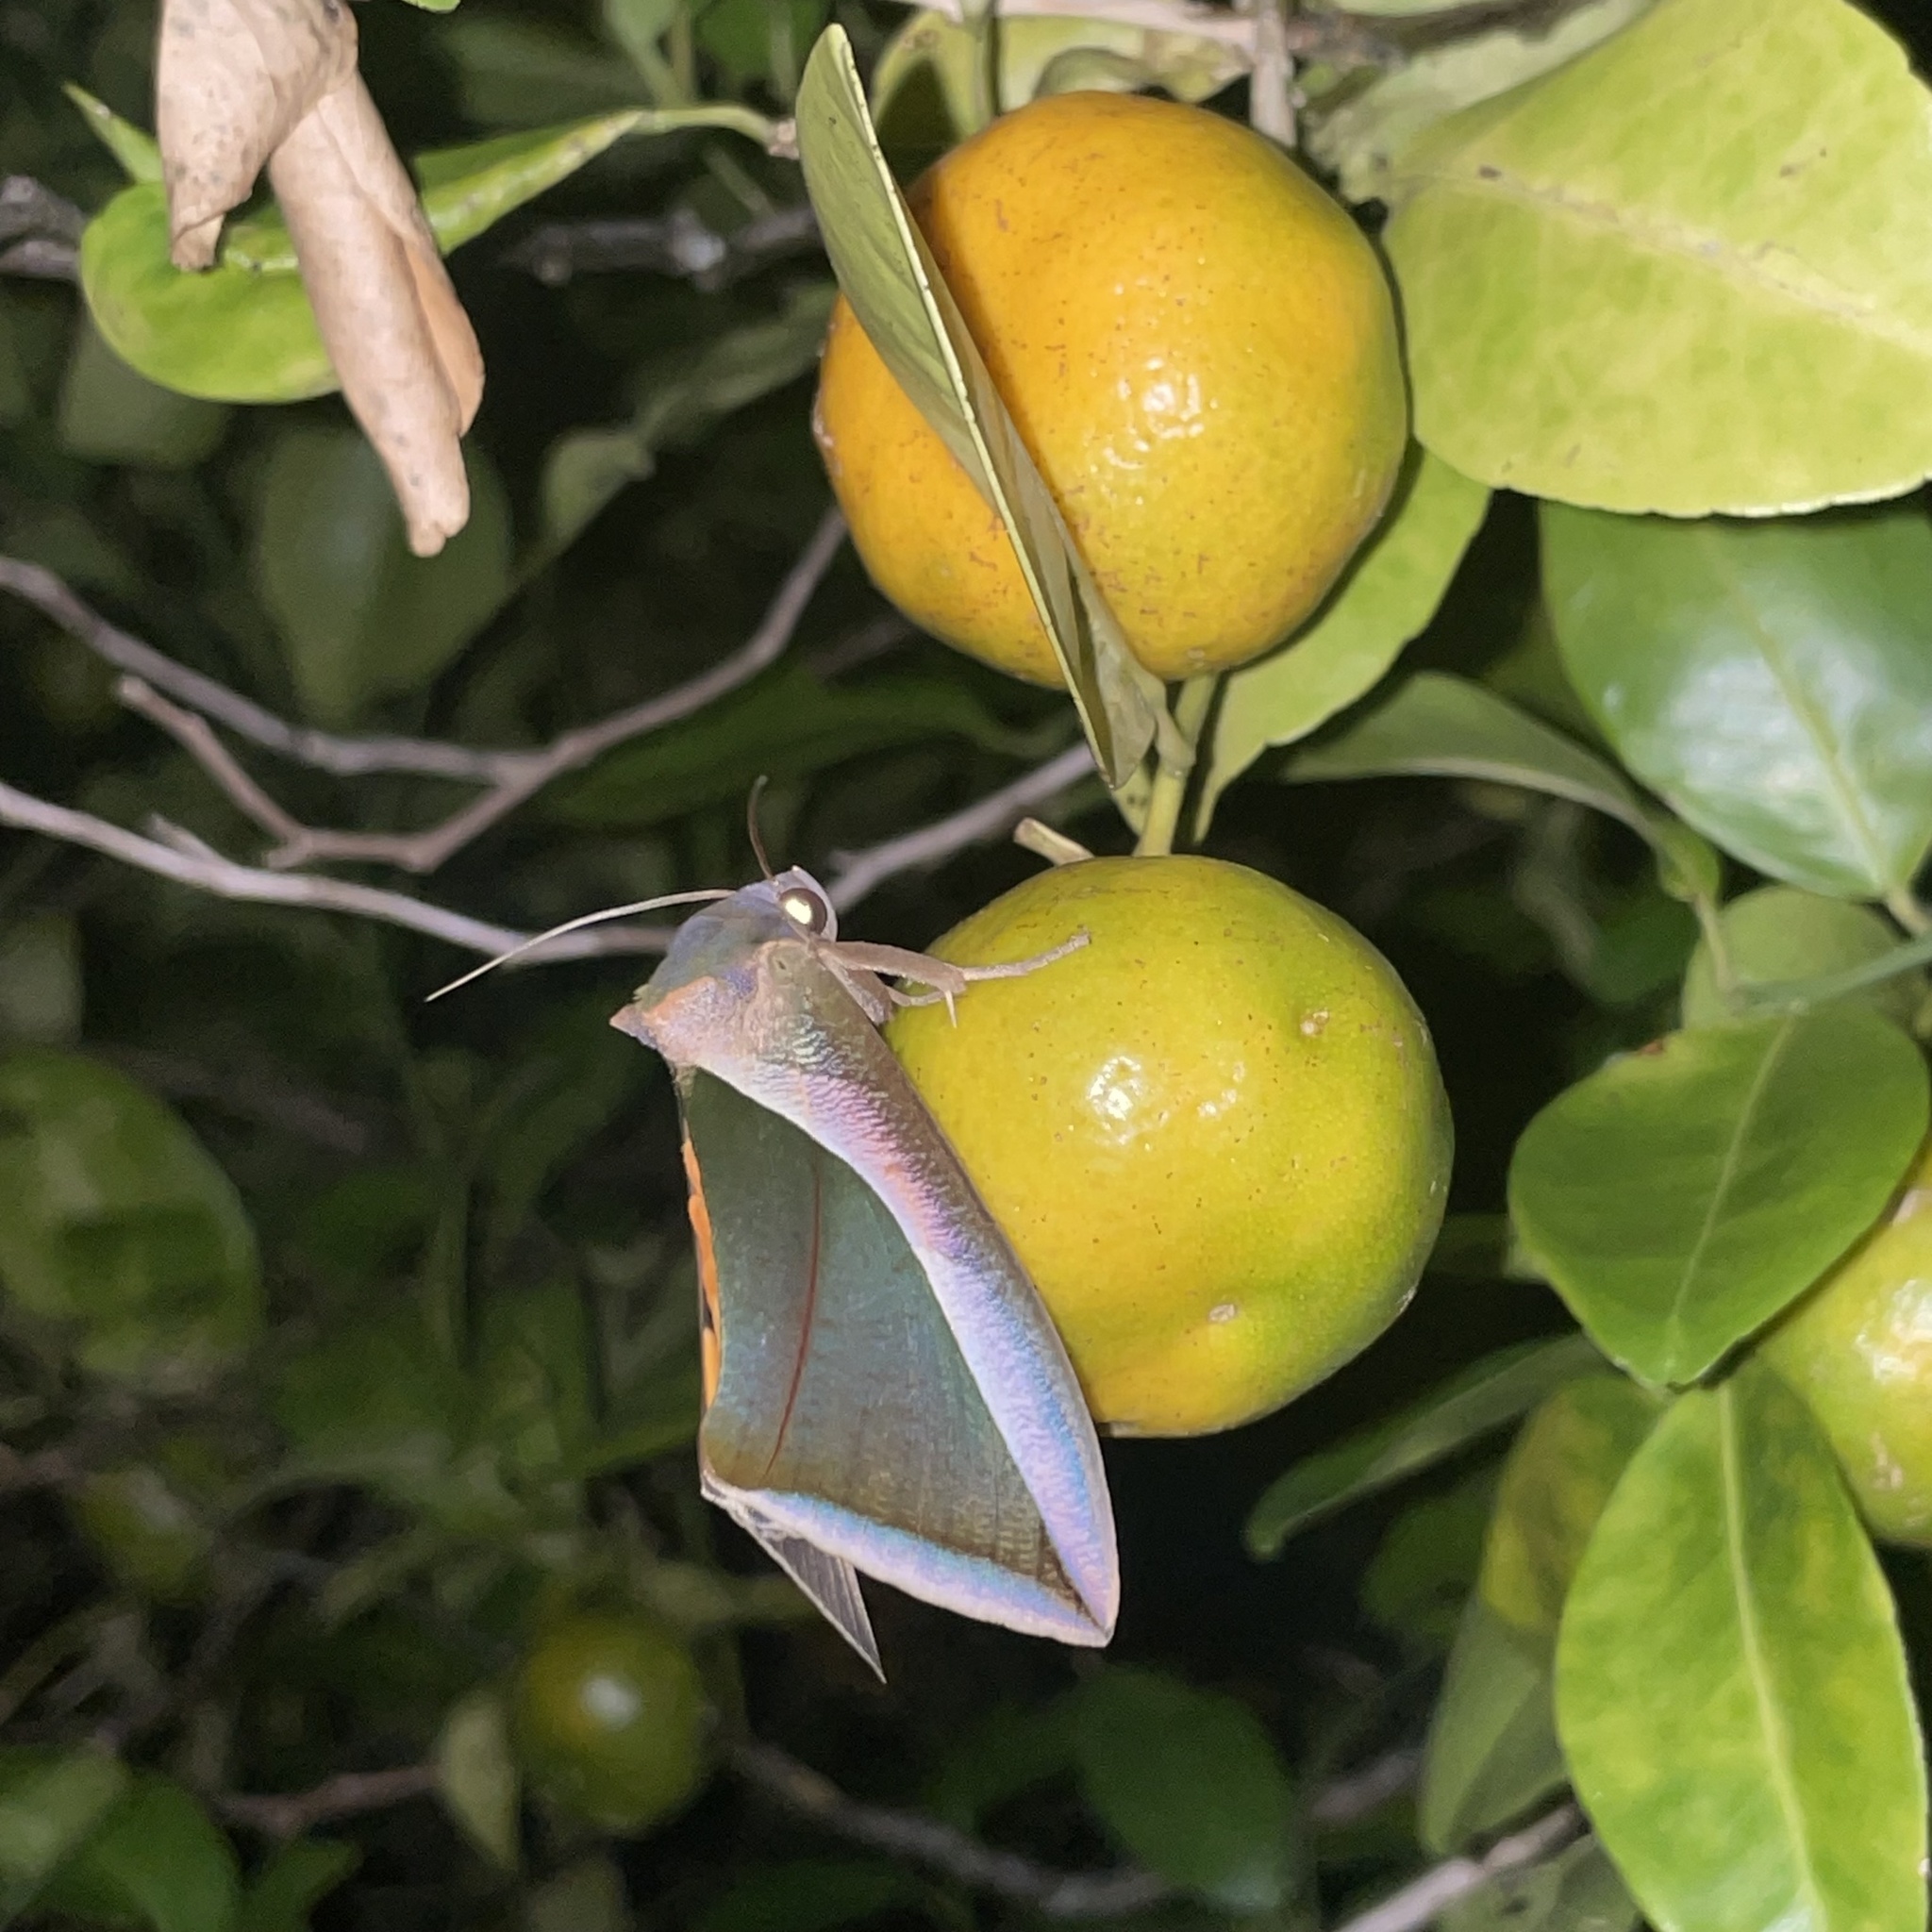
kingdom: Animalia
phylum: Arthropoda
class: Insecta
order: Lepidoptera
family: Erebidae
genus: Eudocima
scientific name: Eudocima salaminia
